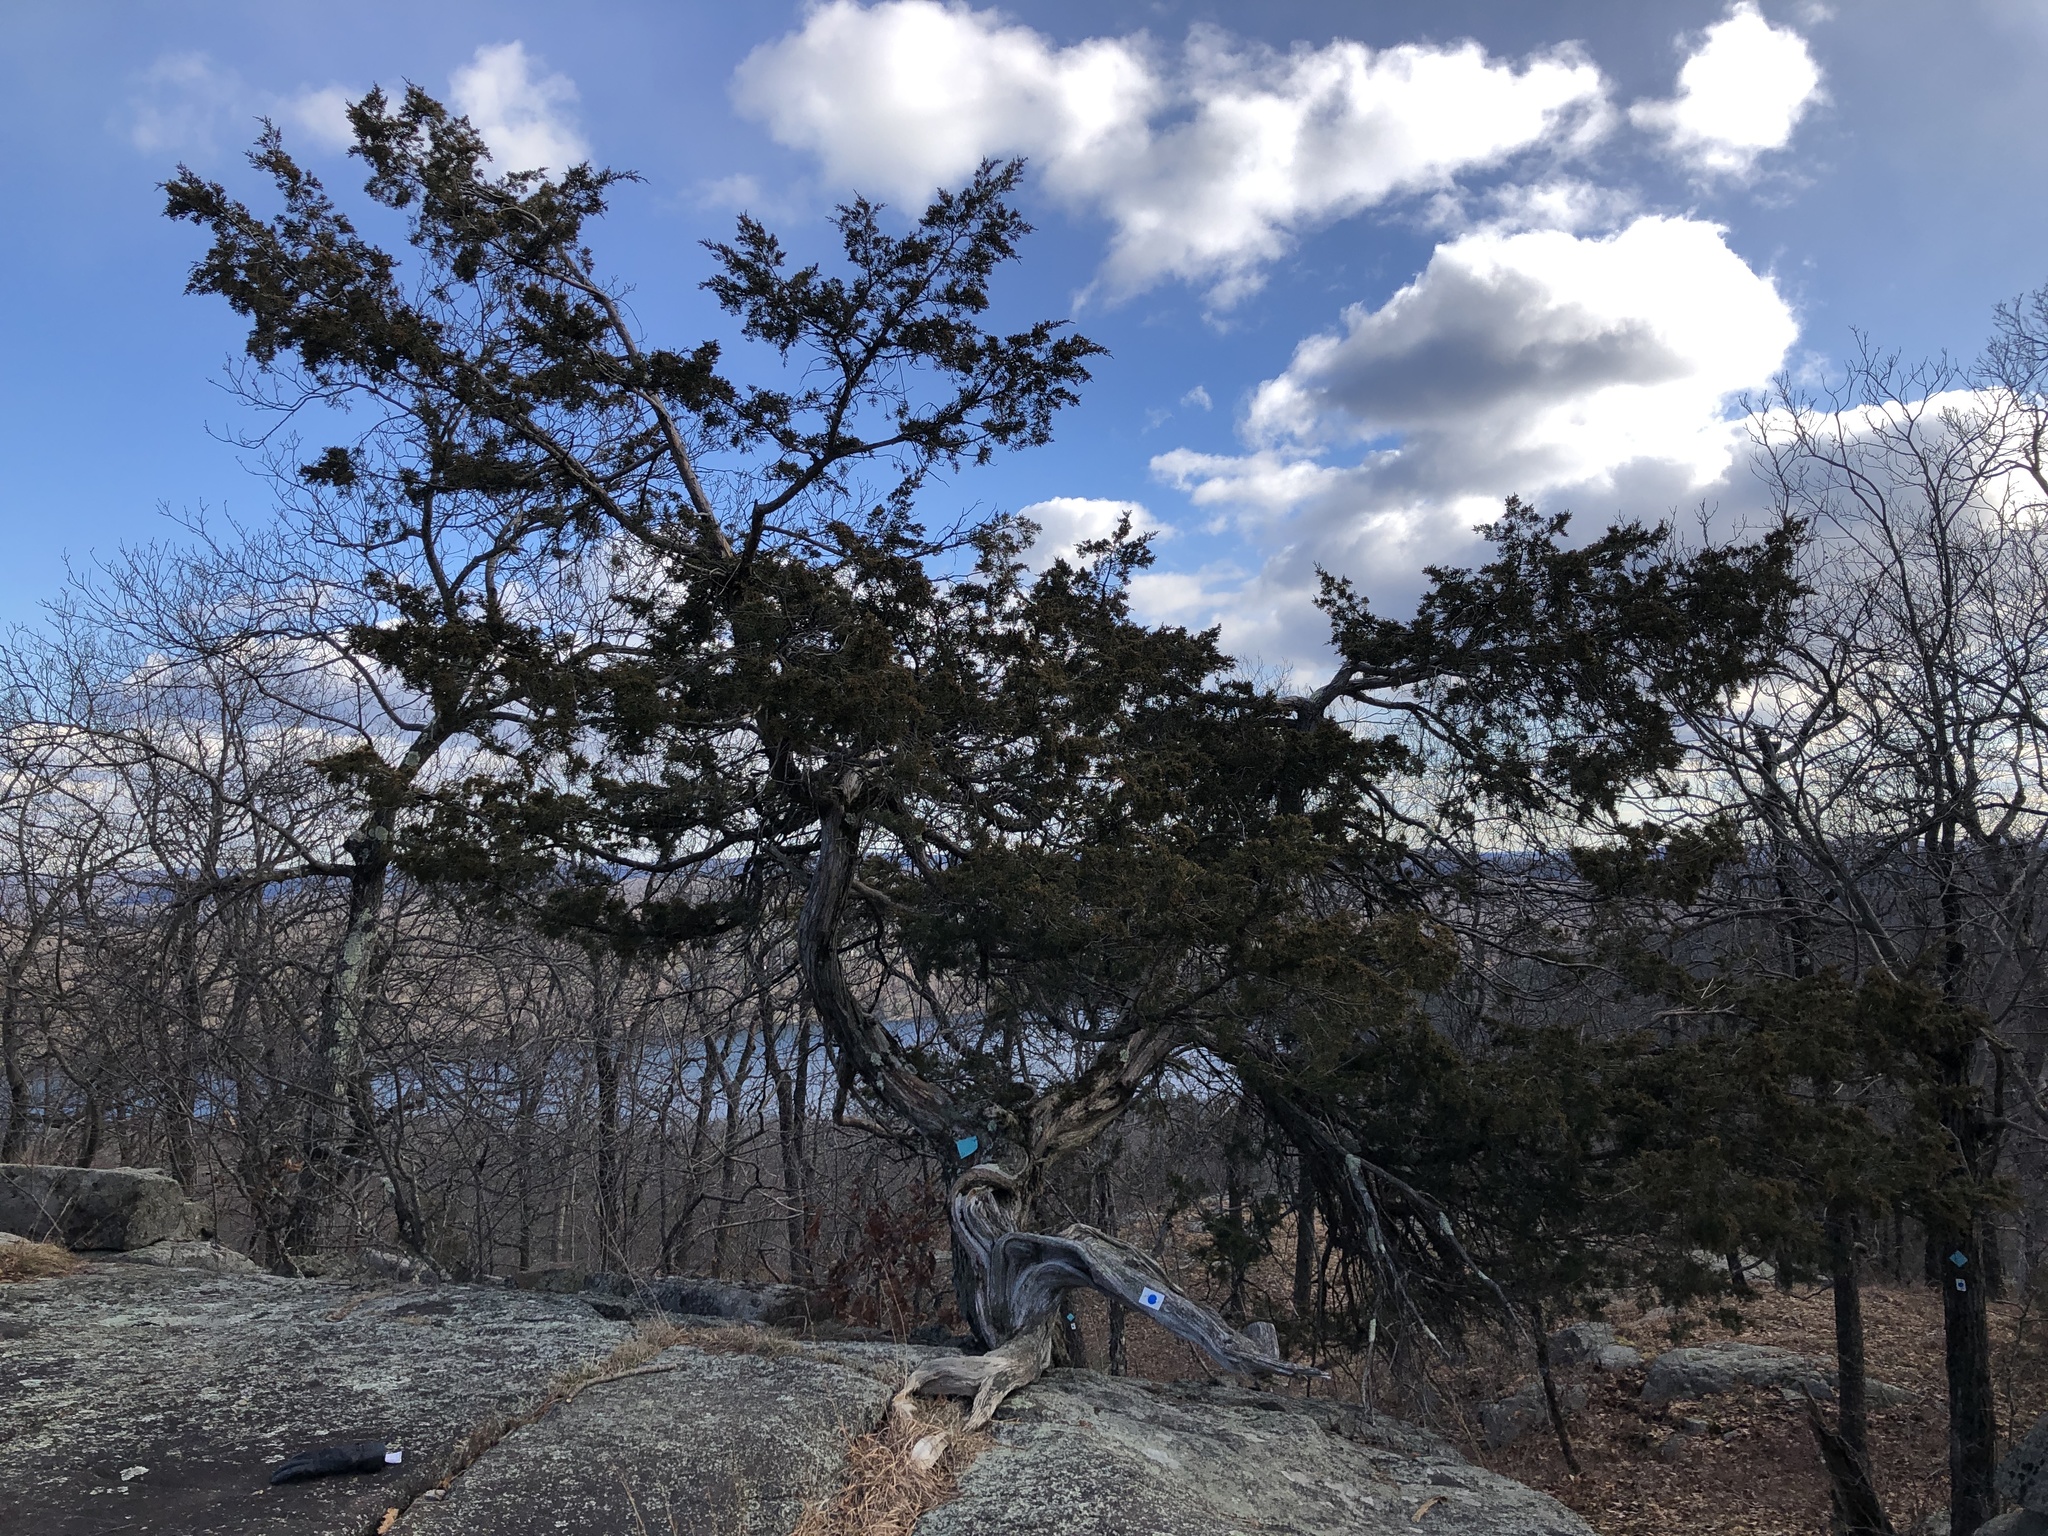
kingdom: Plantae
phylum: Tracheophyta
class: Pinopsida
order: Pinales
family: Cupressaceae
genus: Juniperus
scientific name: Juniperus virginiana
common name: Red juniper
